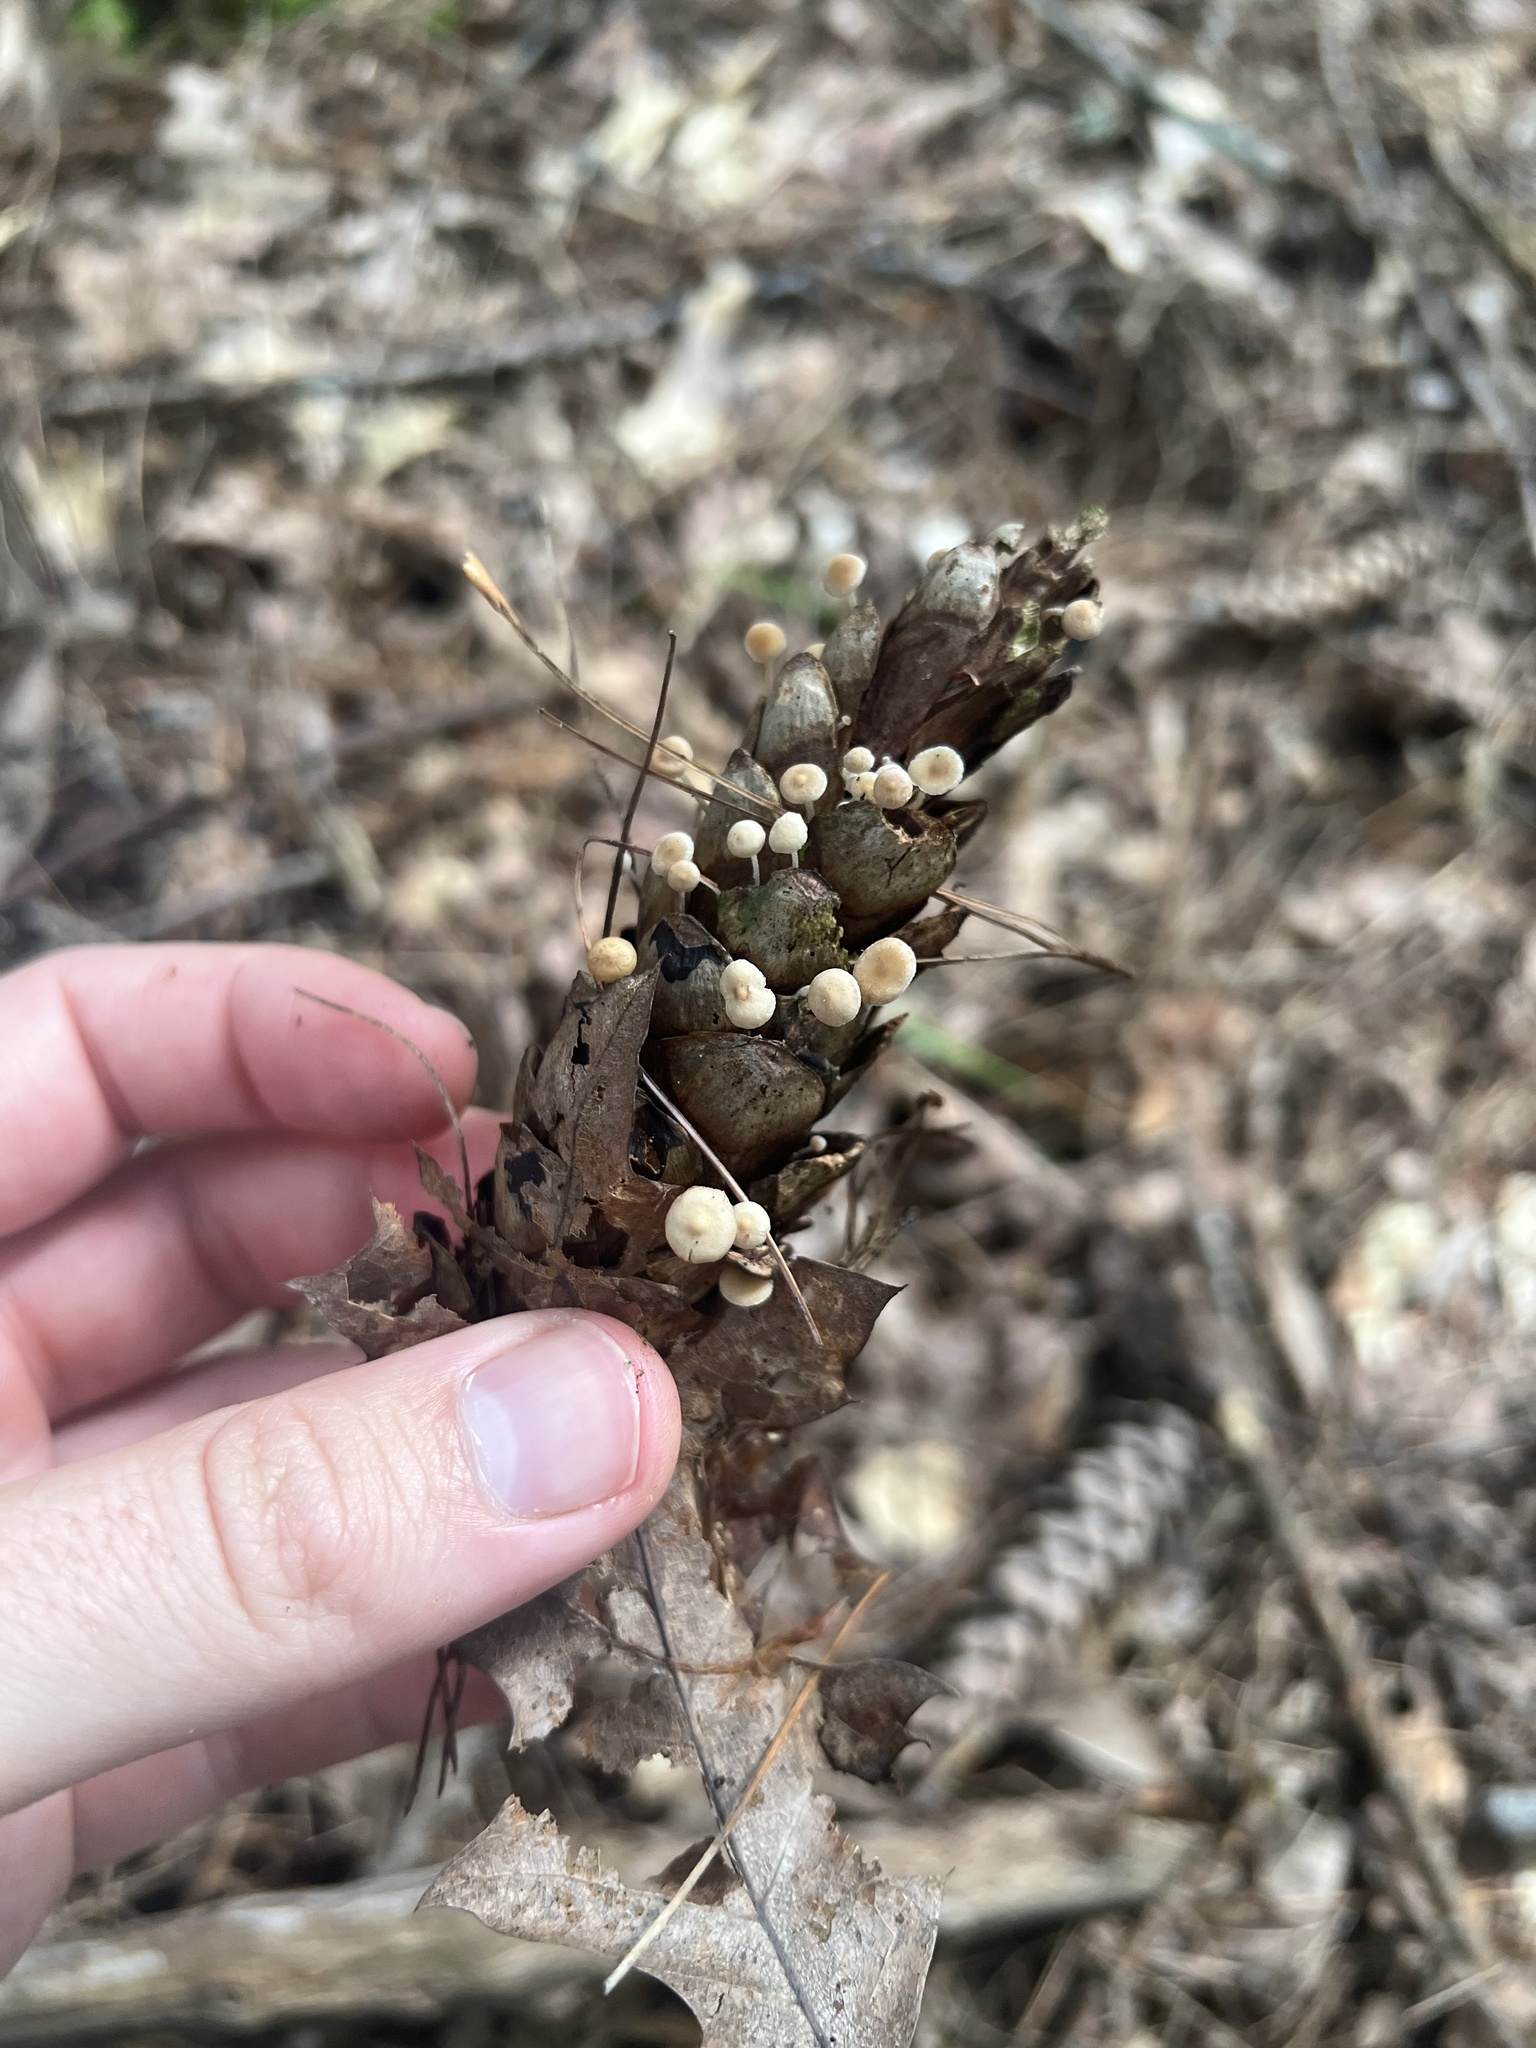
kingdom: Fungi
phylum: Basidiomycota
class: Agaricomycetes
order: Agaricales
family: Marasmiaceae
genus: Baeospora
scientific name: Baeospora myosura
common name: Conifercone cap
